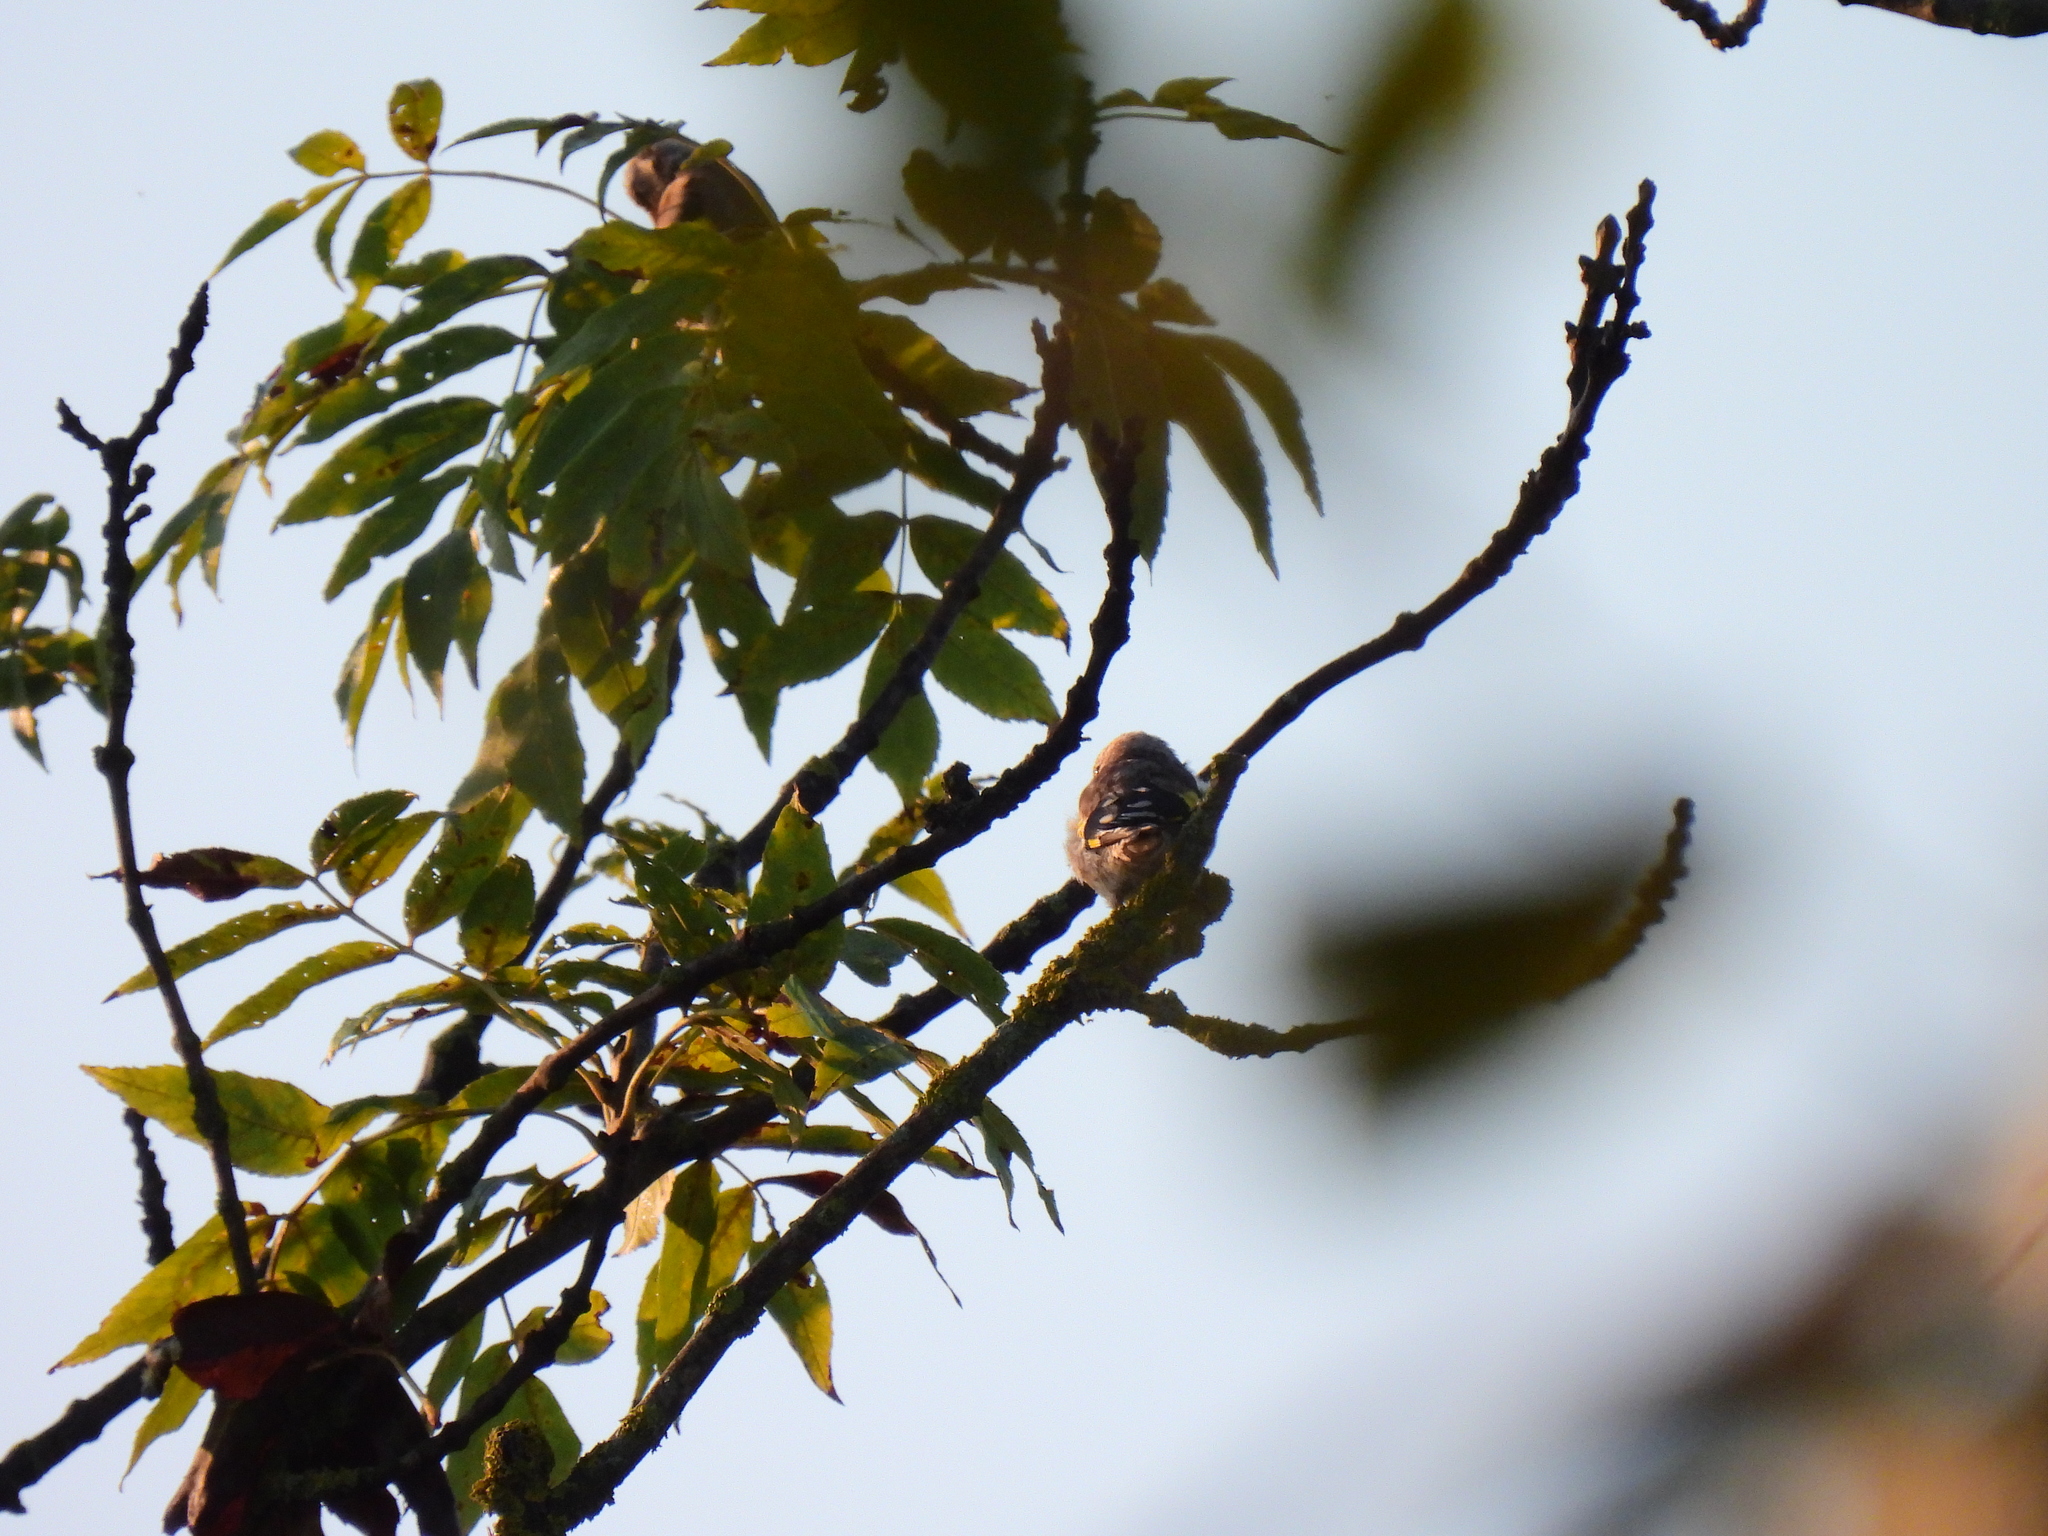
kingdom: Animalia
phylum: Chordata
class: Aves
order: Passeriformes
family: Fringillidae
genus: Carduelis
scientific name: Carduelis carduelis
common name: European goldfinch
